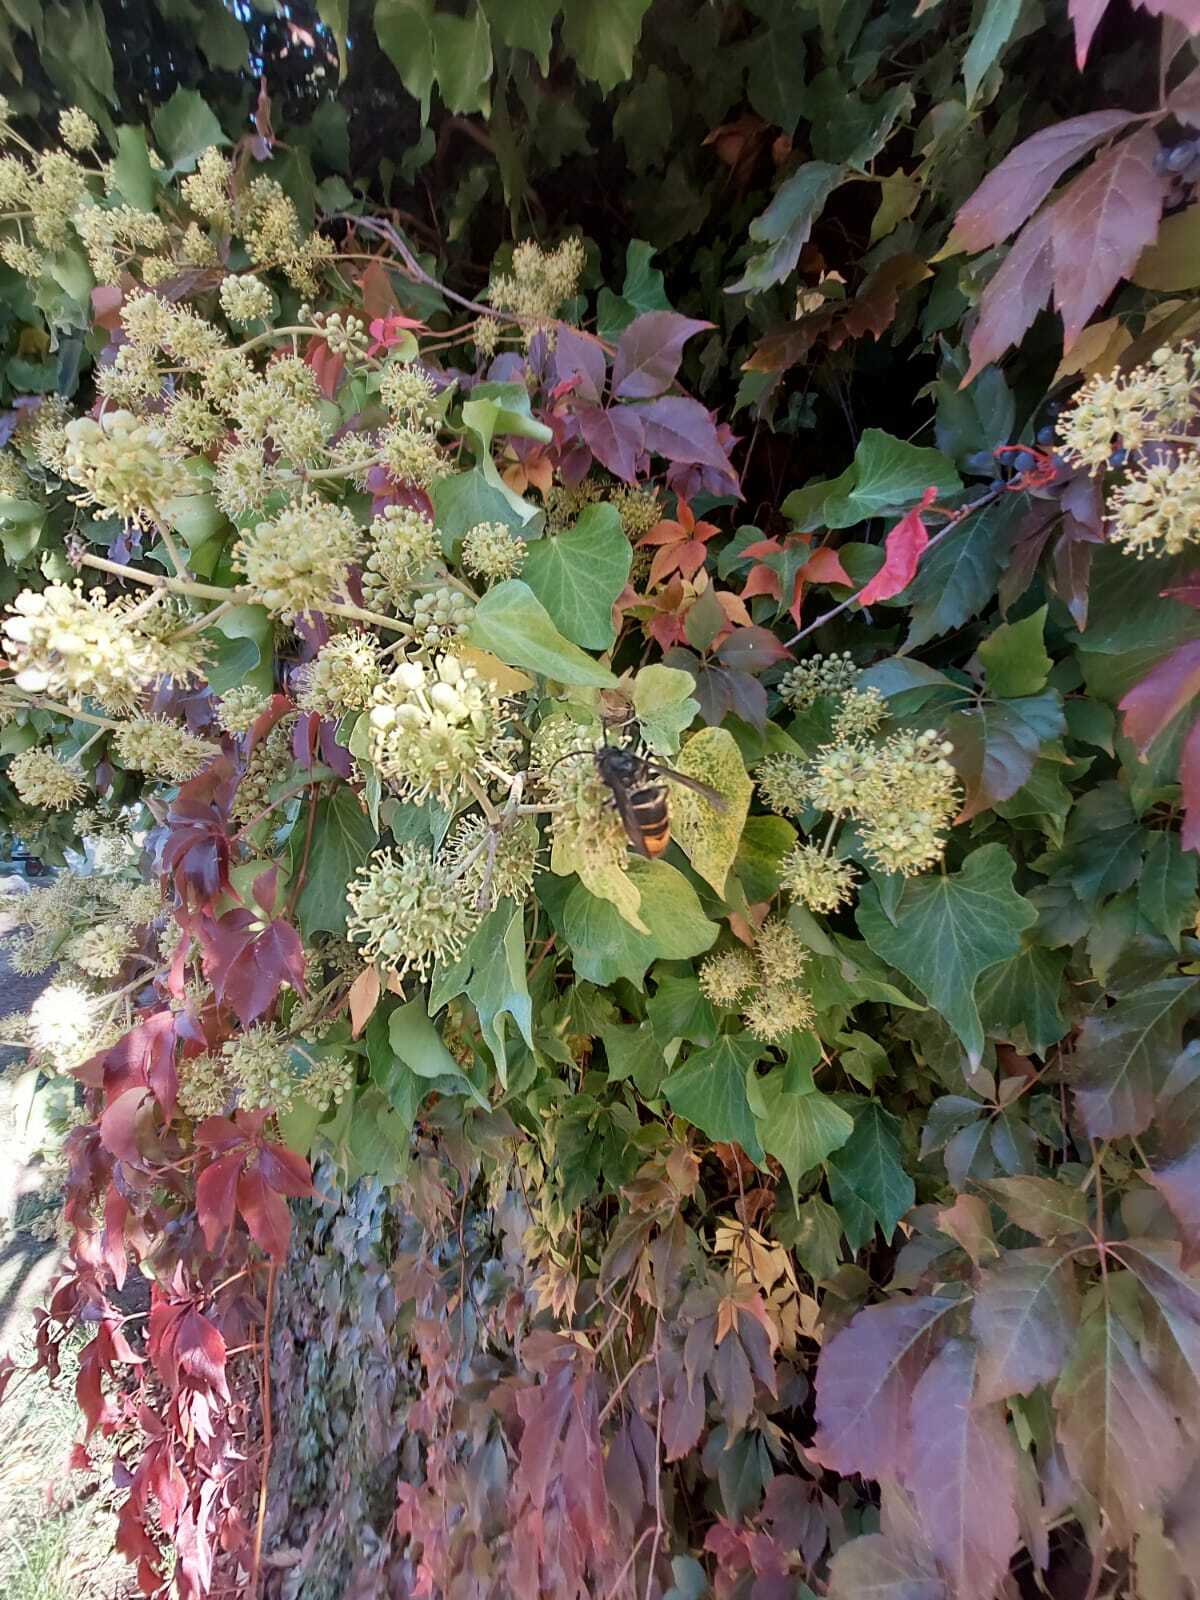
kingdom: Animalia
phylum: Arthropoda
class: Insecta
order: Hymenoptera
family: Vespidae
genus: Vespa
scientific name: Vespa velutina
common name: Asian hornet
